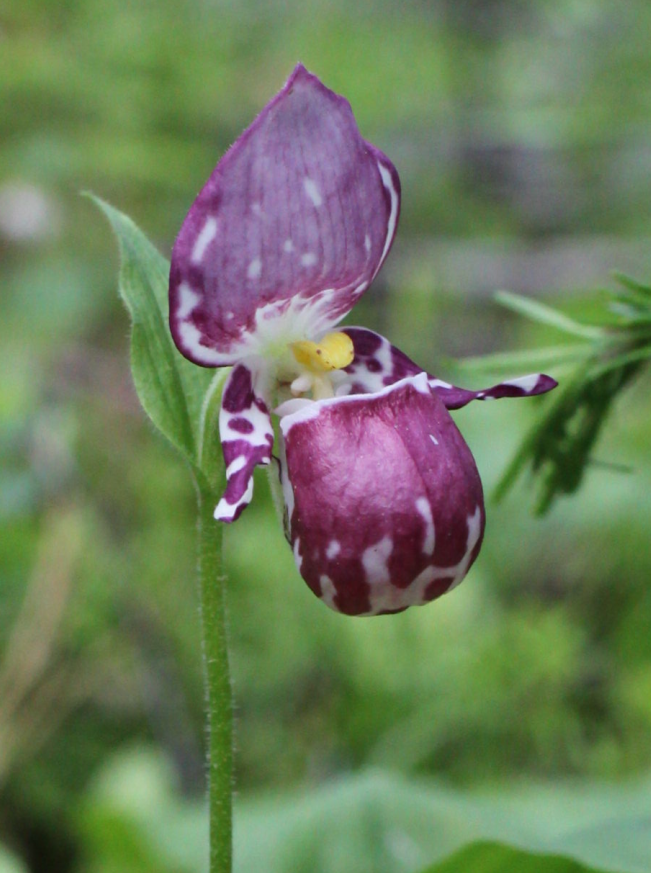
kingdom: Plantae
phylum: Tracheophyta
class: Liliopsida
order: Asparagales
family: Orchidaceae
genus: Cypripedium
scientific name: Cypripedium guttatum
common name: Pink lady slipper
